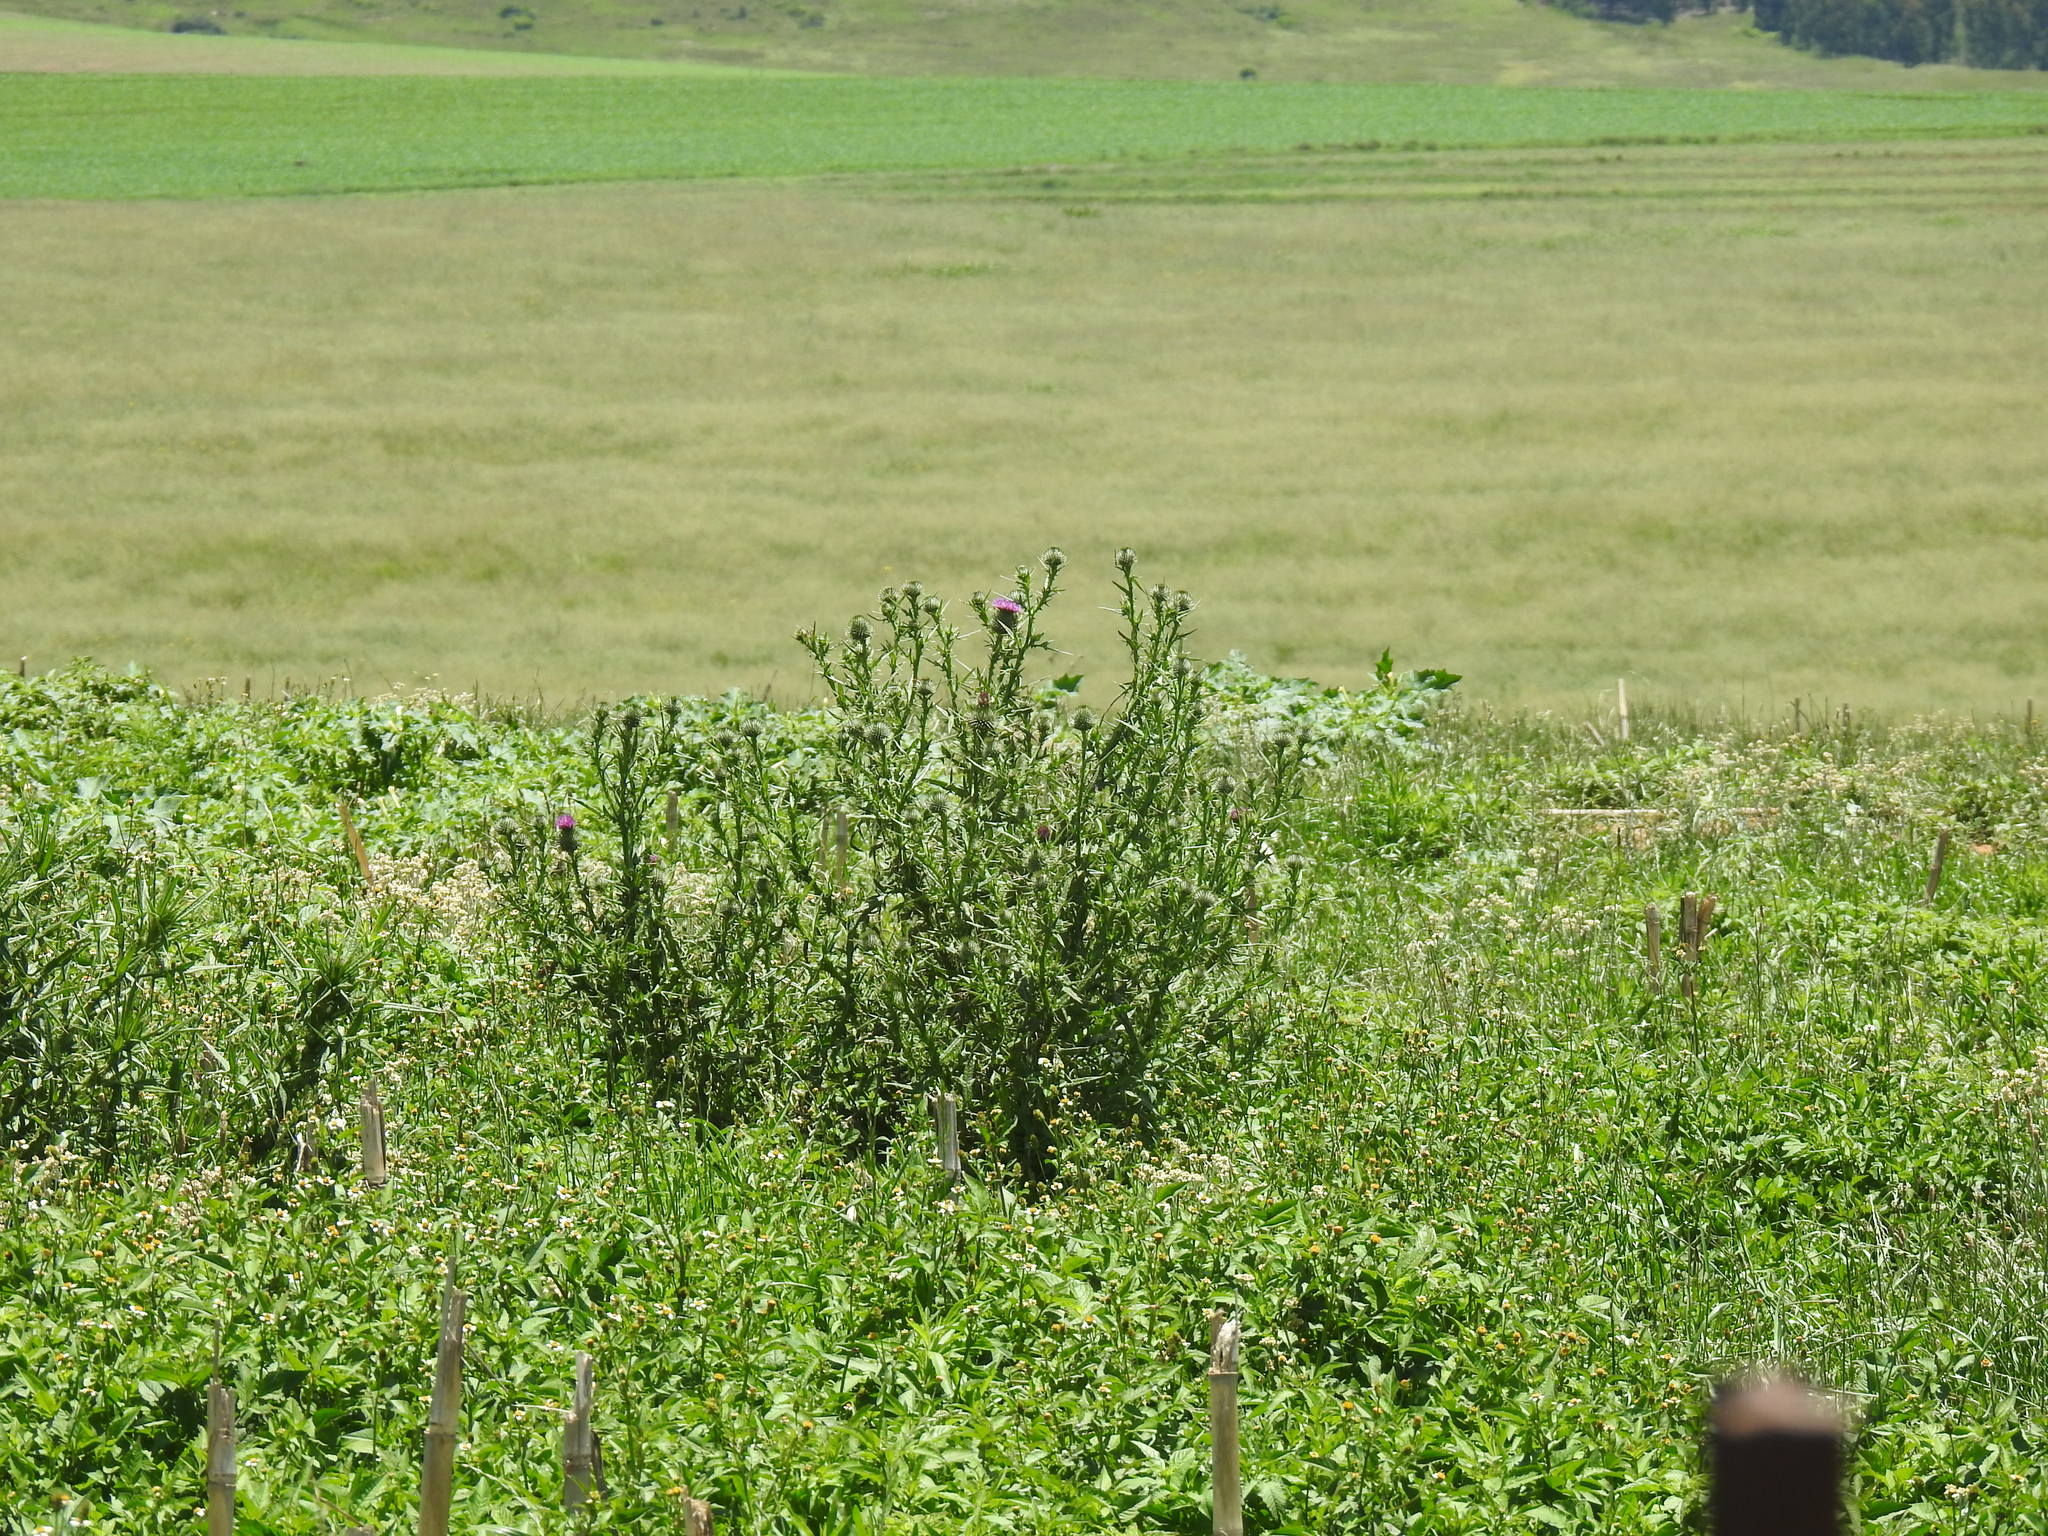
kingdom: Plantae
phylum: Tracheophyta
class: Magnoliopsida
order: Asterales
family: Asteraceae
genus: Cirsium
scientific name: Cirsium vulgare
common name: Bull thistle
